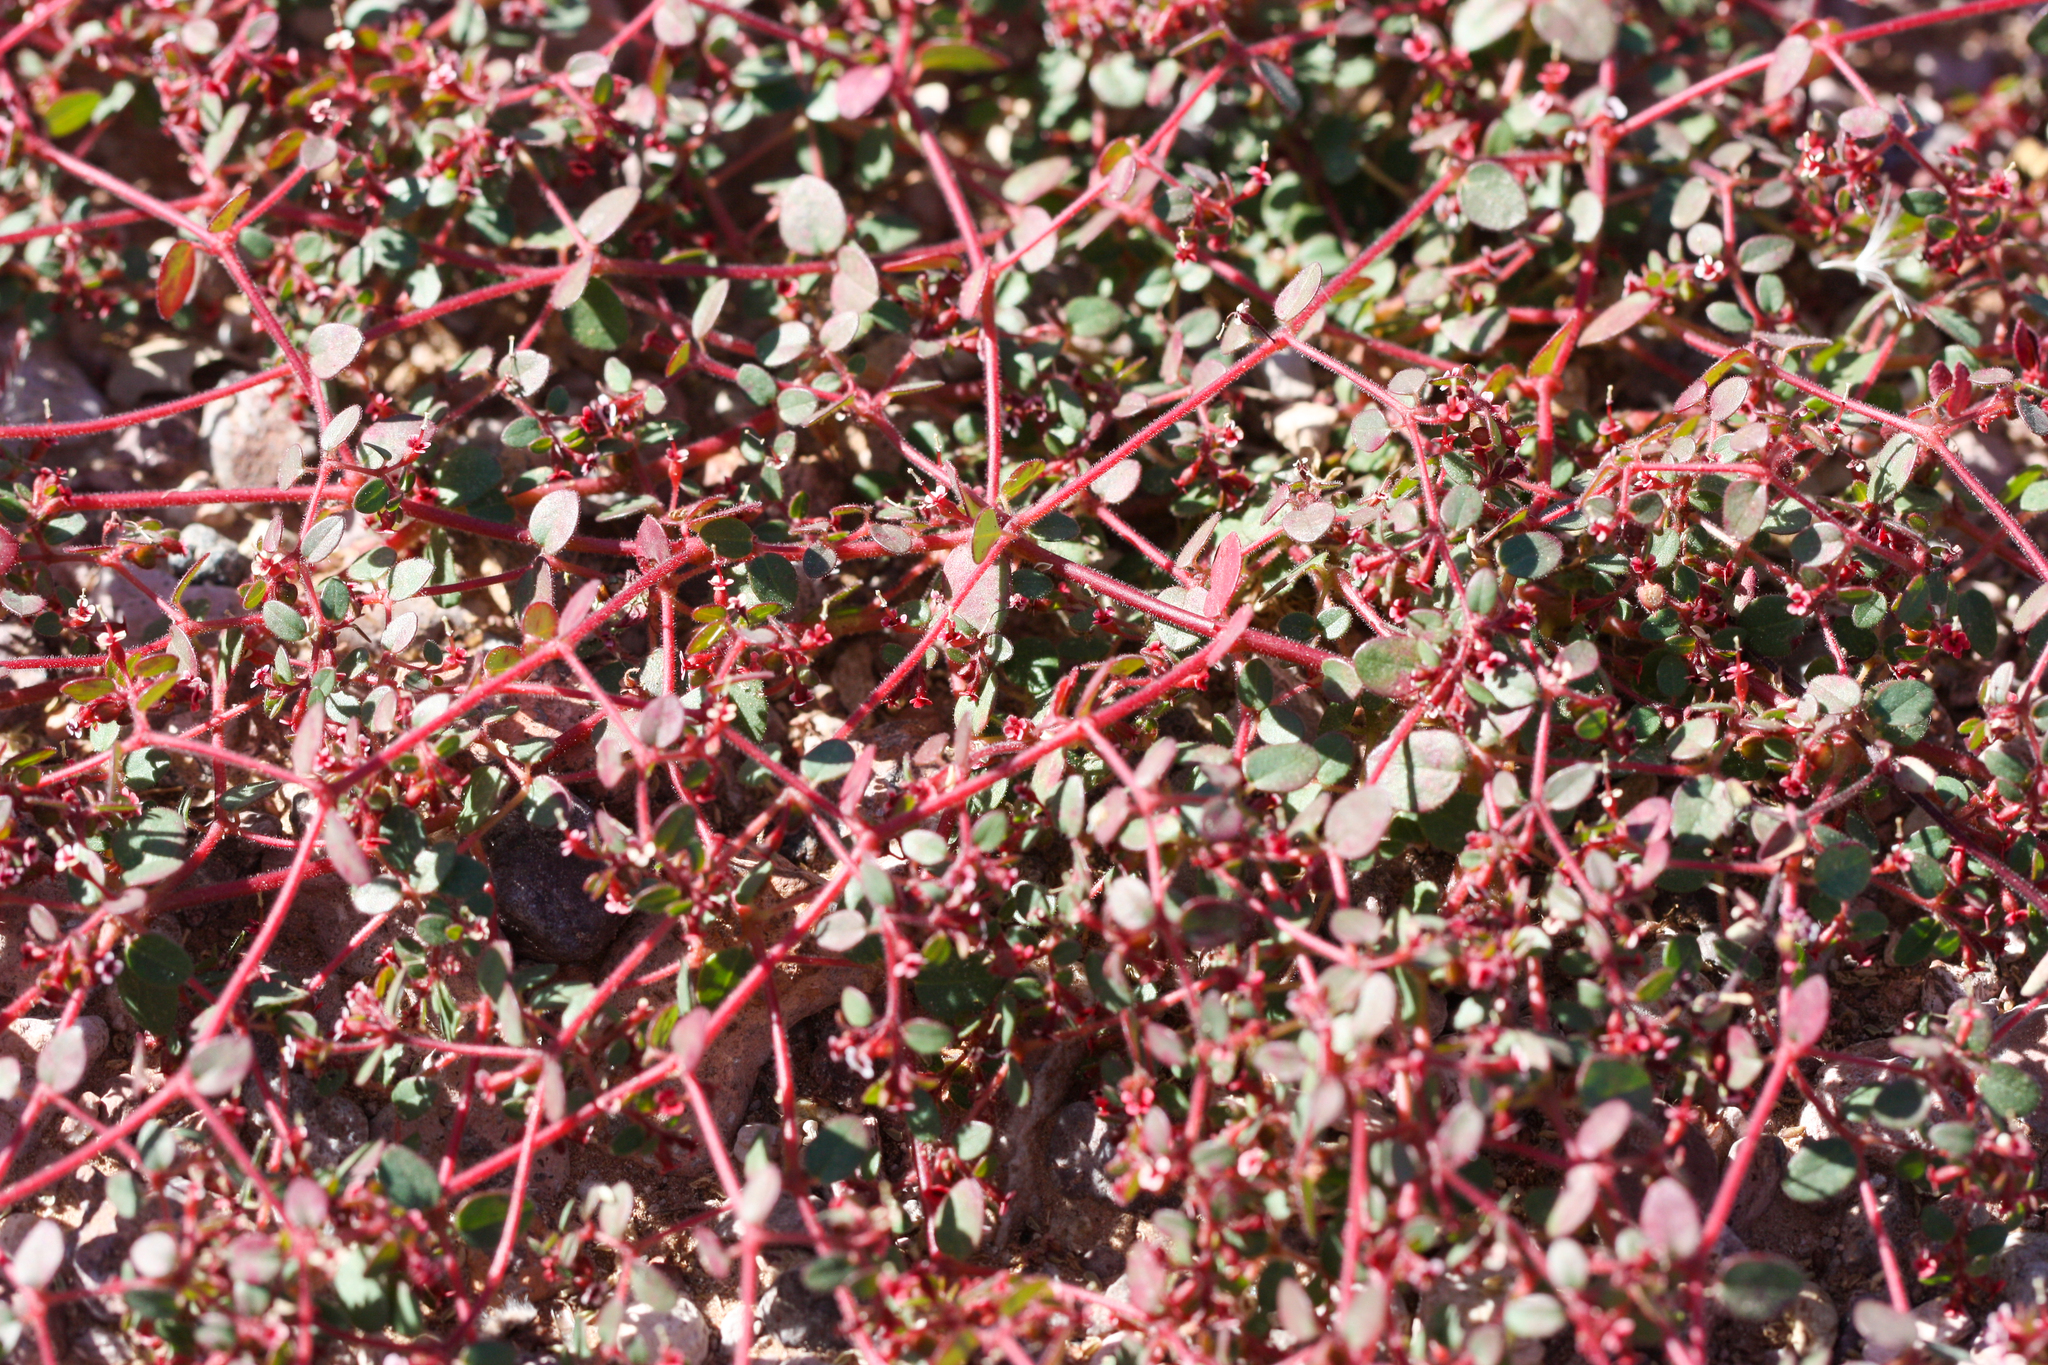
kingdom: Plantae
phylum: Tracheophyta
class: Magnoliopsida
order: Malpighiales
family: Euphorbiaceae
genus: Euphorbia
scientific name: Euphorbia arizonica
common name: Arizona spurge
